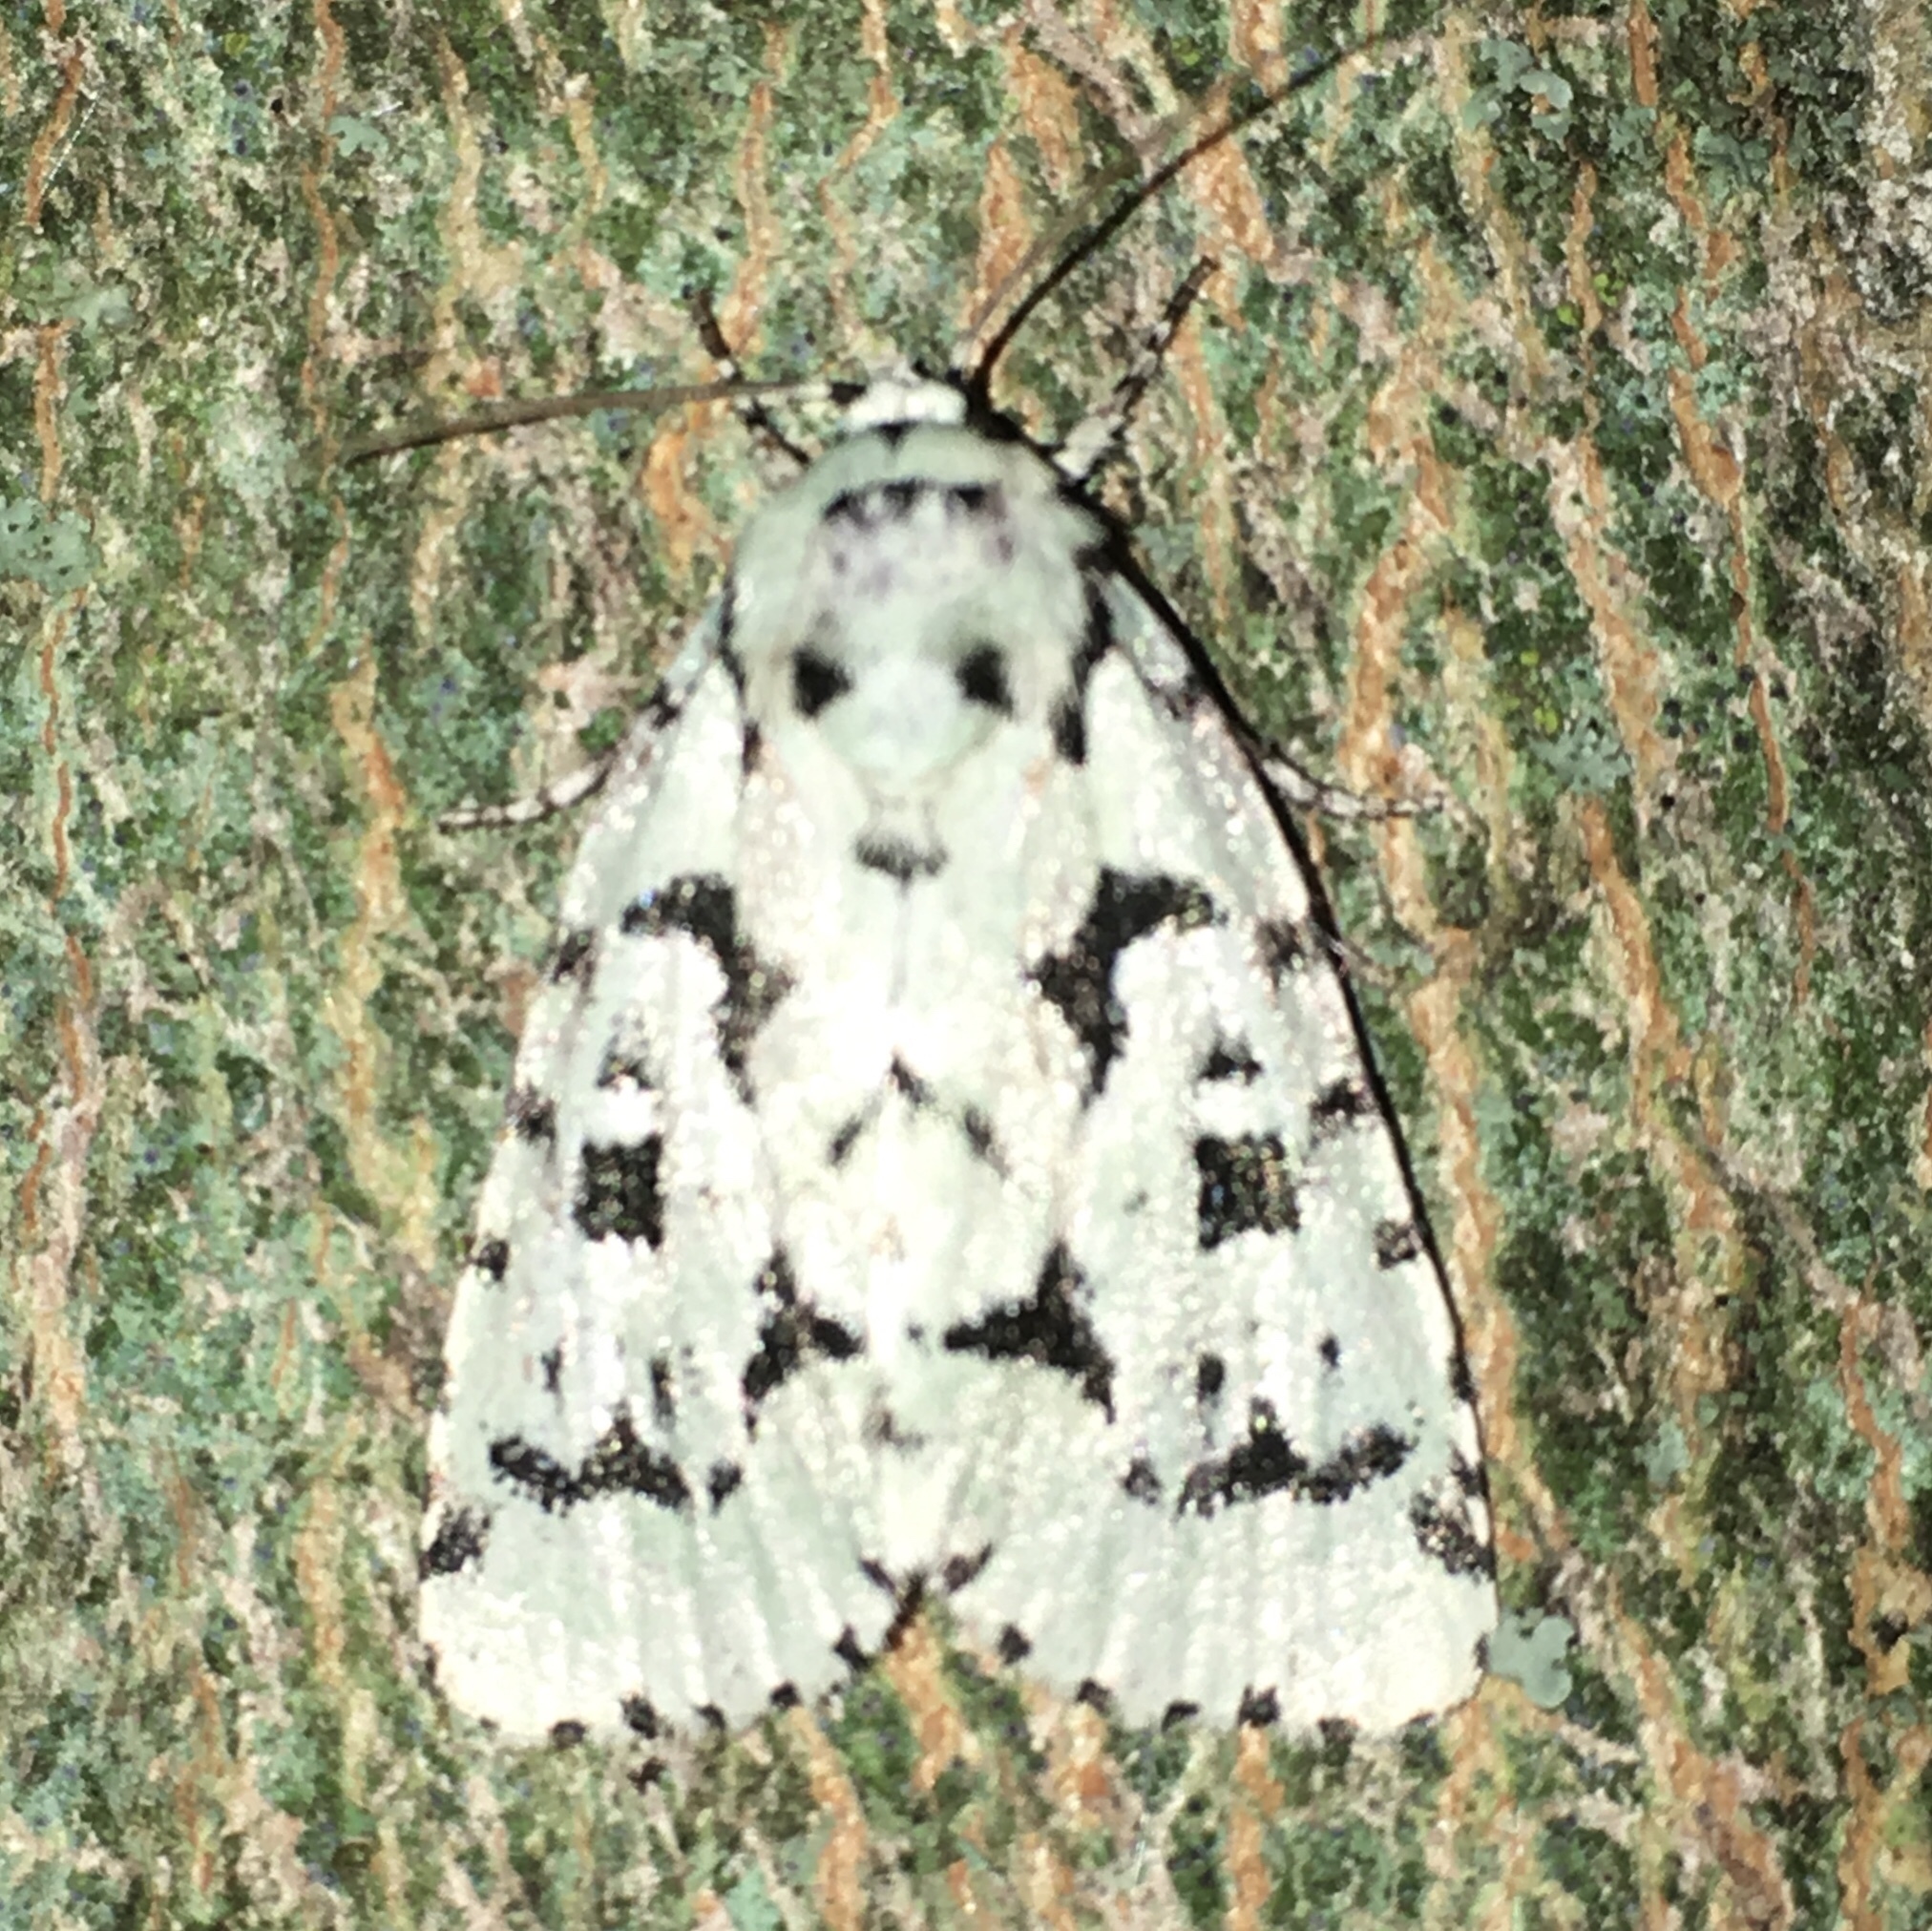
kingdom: Animalia
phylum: Arthropoda
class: Insecta
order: Lepidoptera
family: Noctuidae
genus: Acronicta
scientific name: Acronicta fallax
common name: Green marvel
